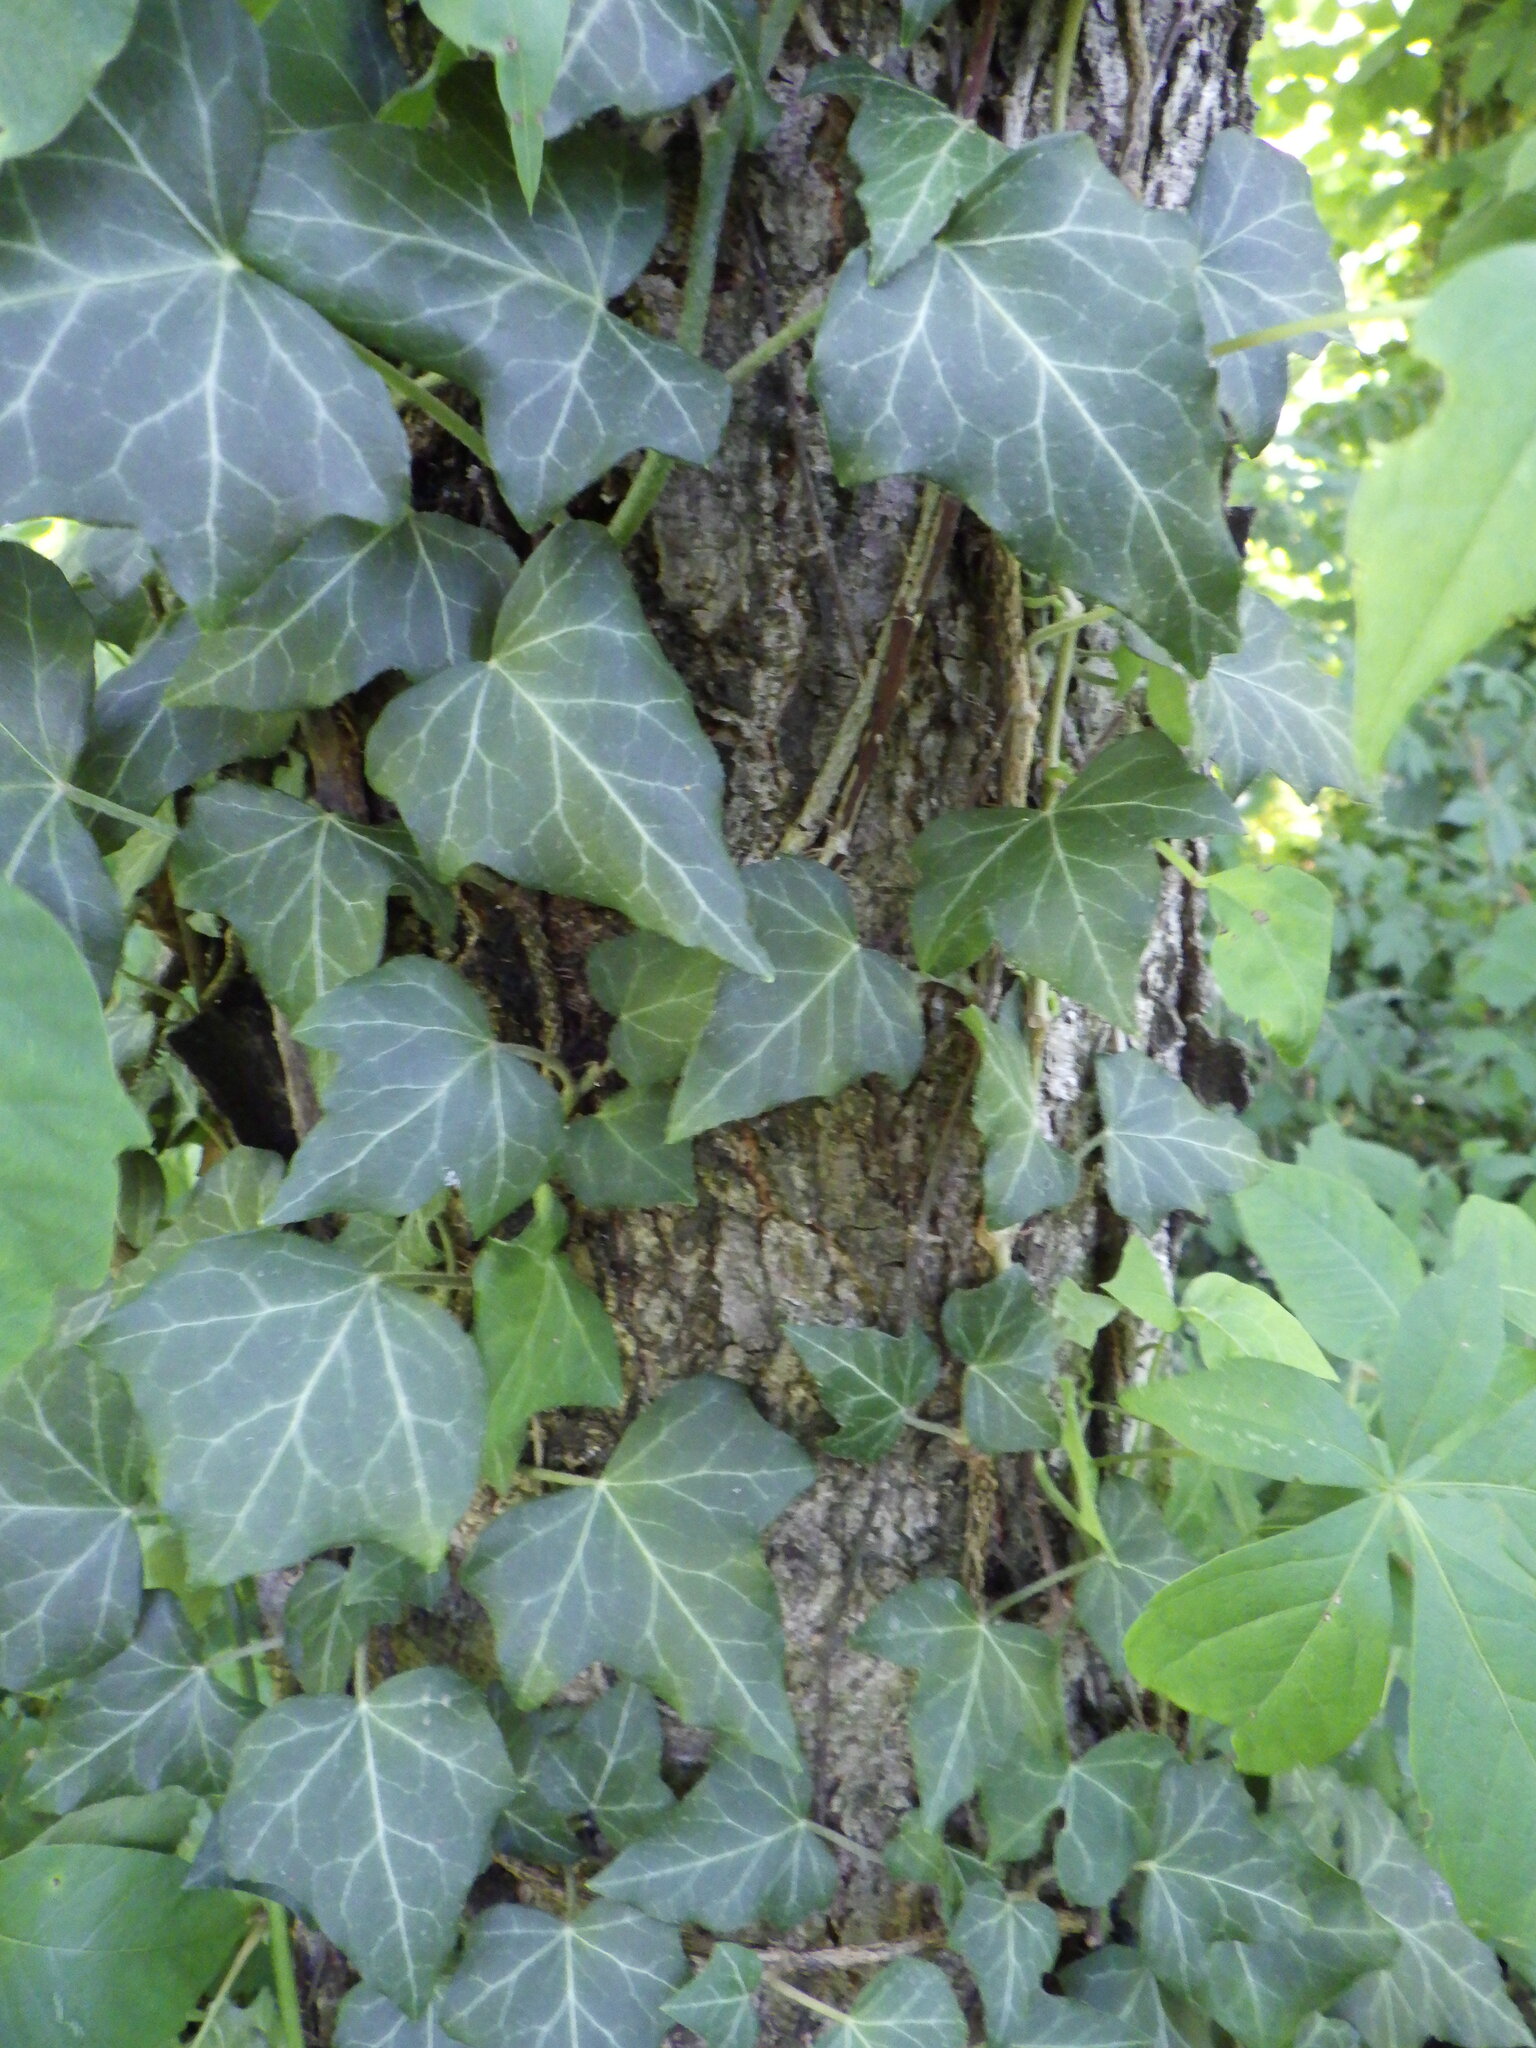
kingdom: Plantae
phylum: Tracheophyta
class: Magnoliopsida
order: Apiales
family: Araliaceae
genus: Hedera
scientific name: Hedera helix
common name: Ivy
